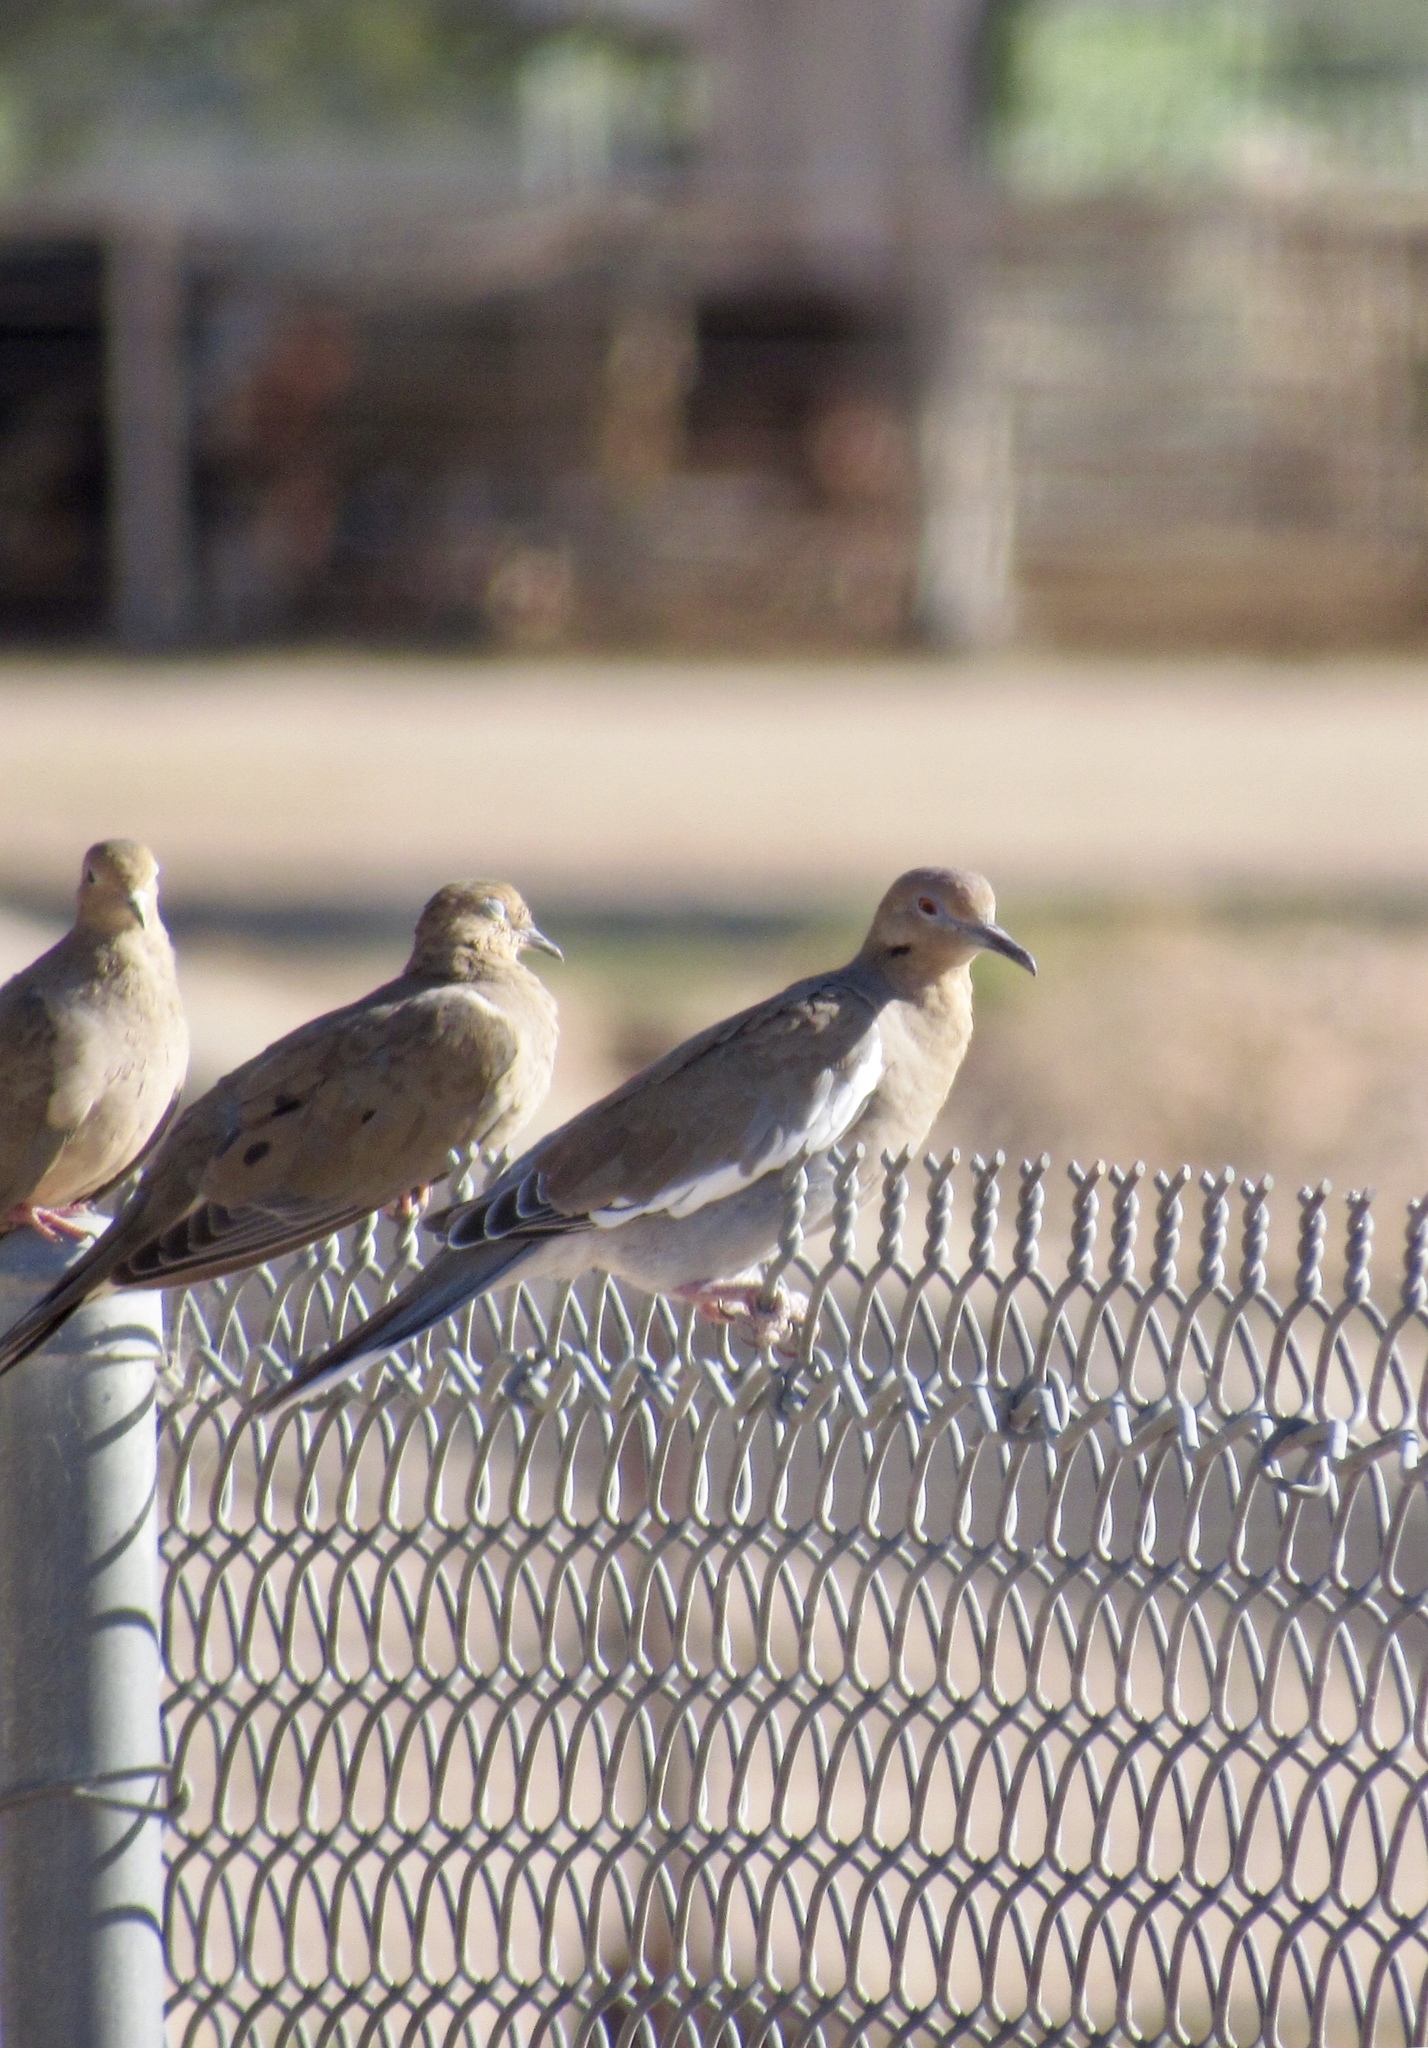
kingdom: Animalia
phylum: Chordata
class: Aves
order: Columbiformes
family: Columbidae
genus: Zenaida
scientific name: Zenaida asiatica
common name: White-winged dove
